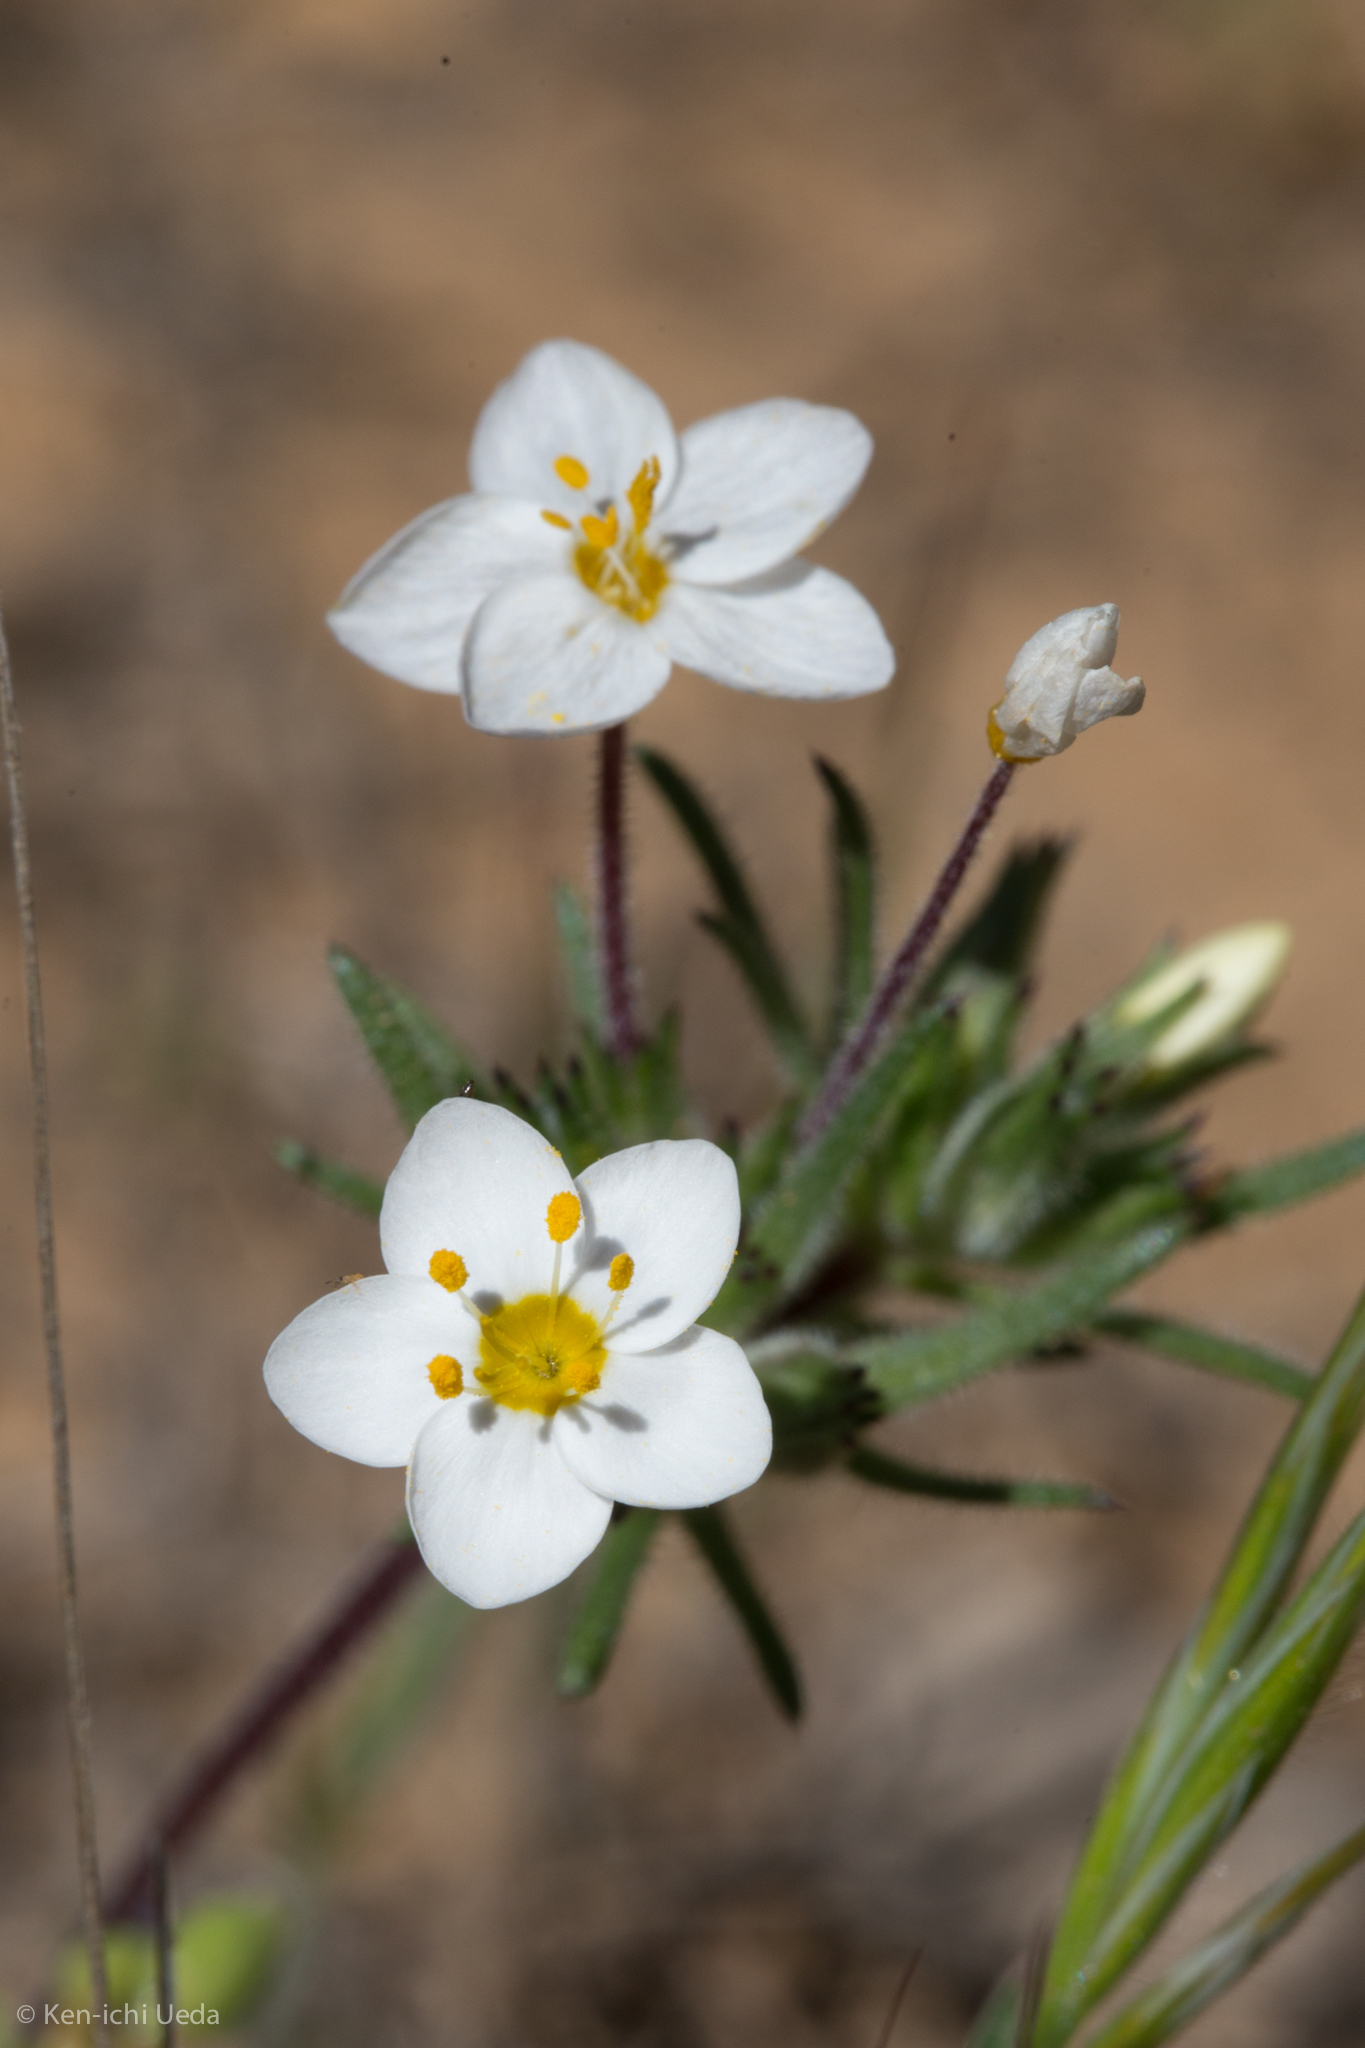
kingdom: Plantae
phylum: Tracheophyta
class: Magnoliopsida
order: Ericales
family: Polemoniaceae
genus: Leptosiphon
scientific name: Leptosiphon parviflorus
